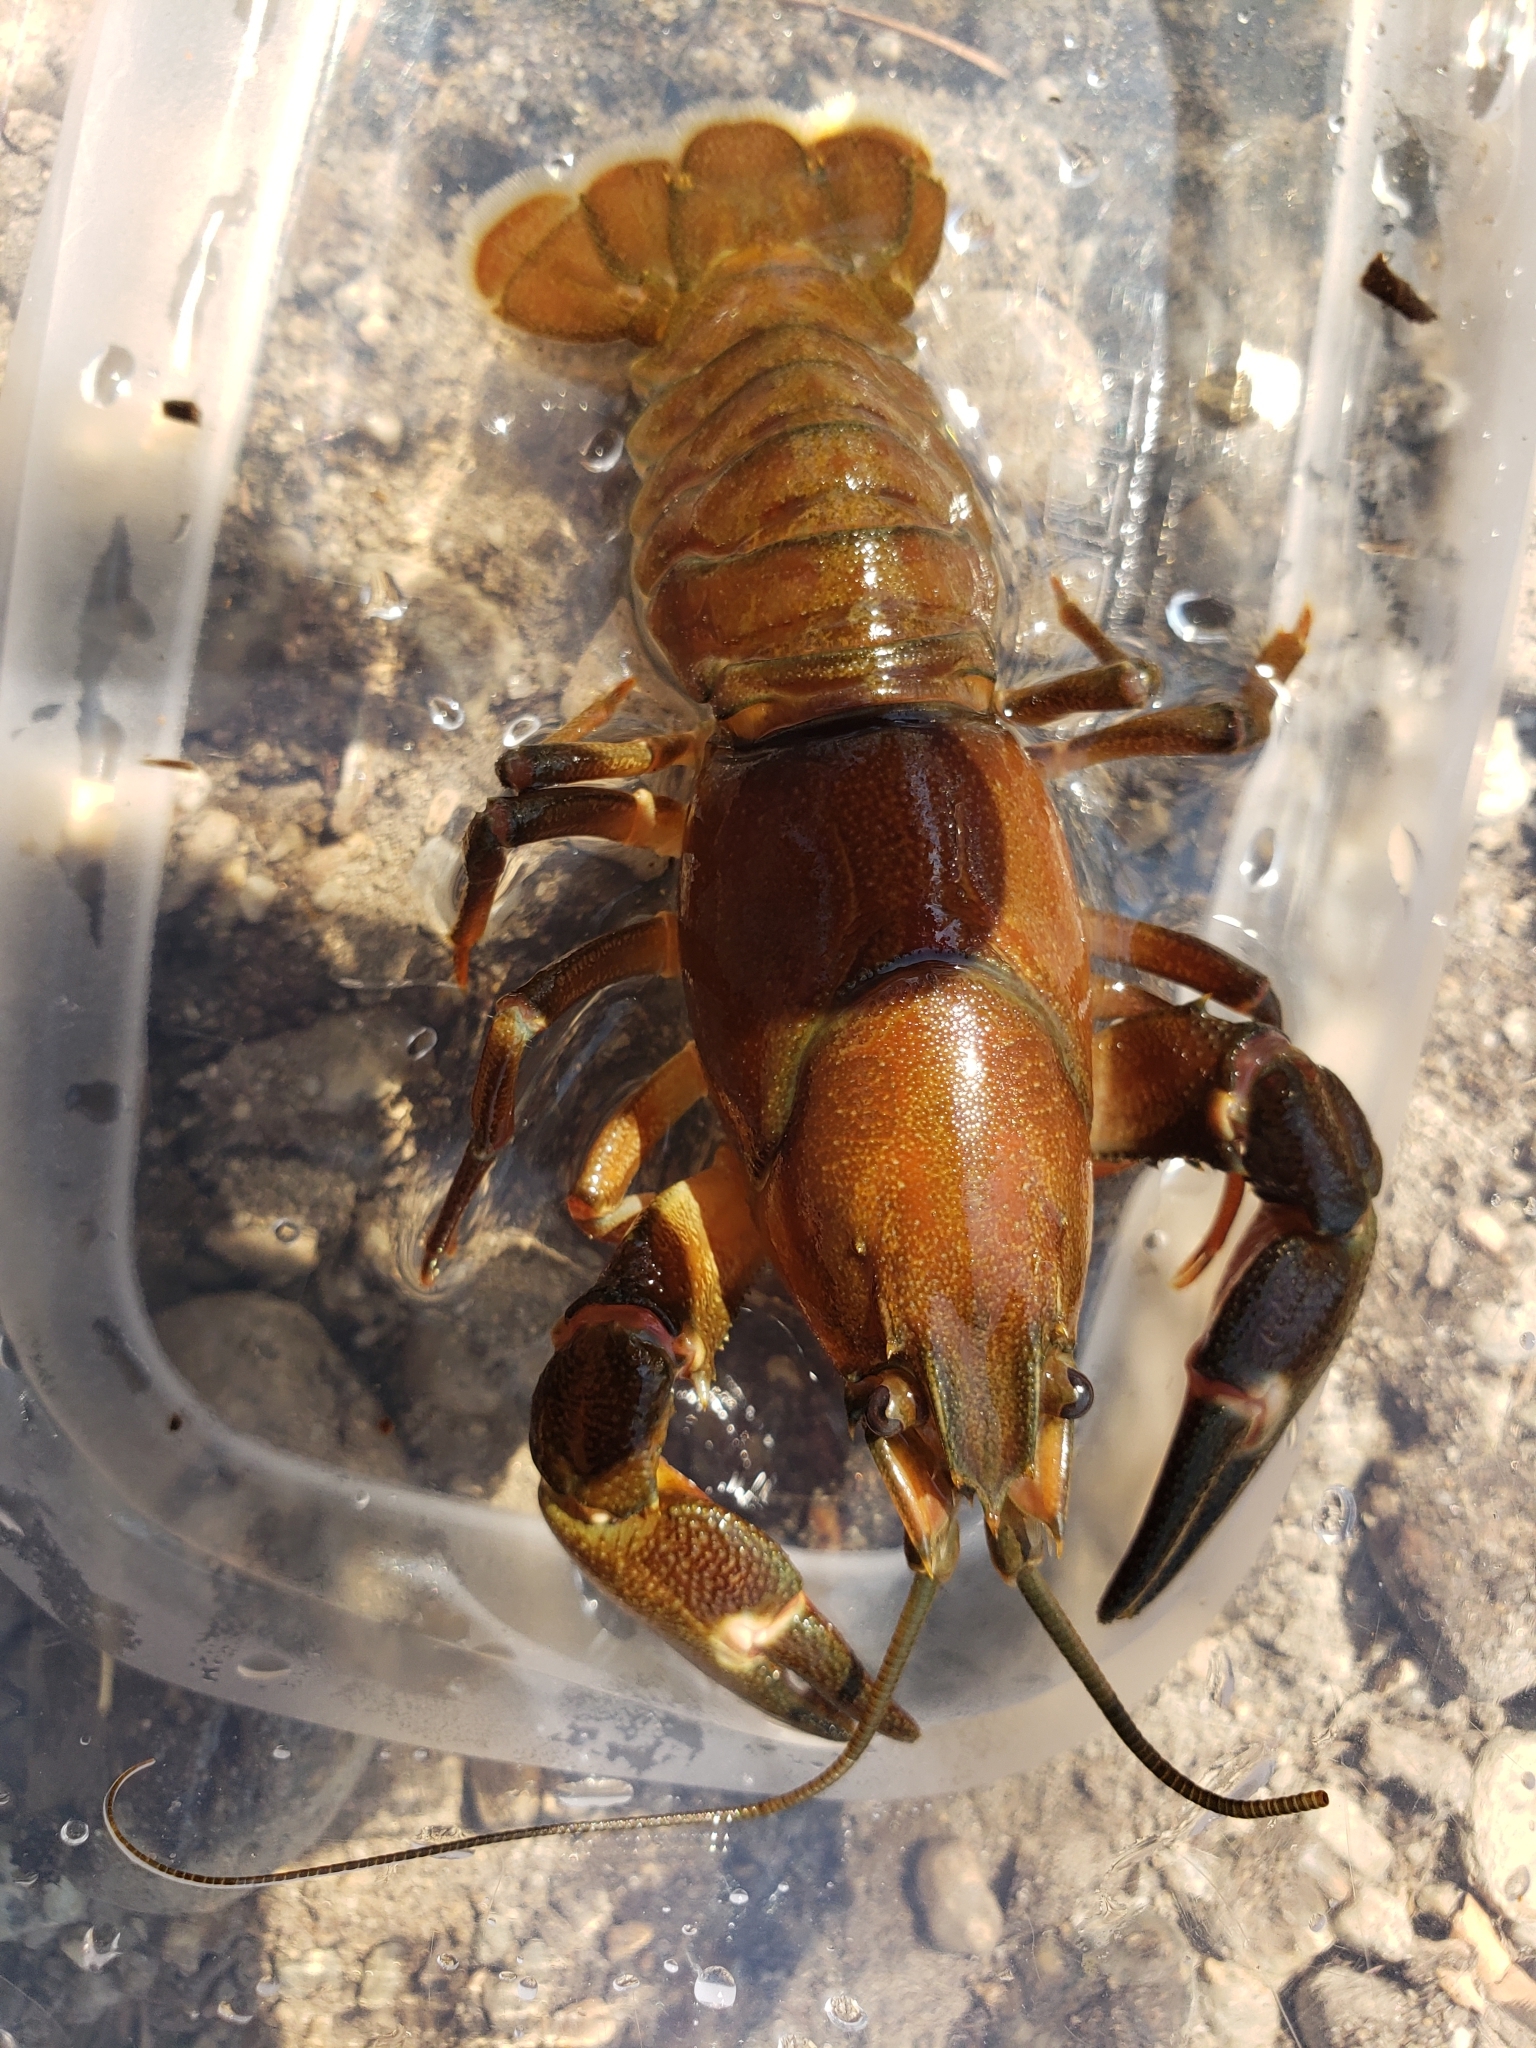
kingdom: Animalia
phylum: Arthropoda
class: Malacostraca
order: Decapoda
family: Astacidae
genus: Pacifastacus
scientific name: Pacifastacus leniusculus
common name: Signal crayfish
